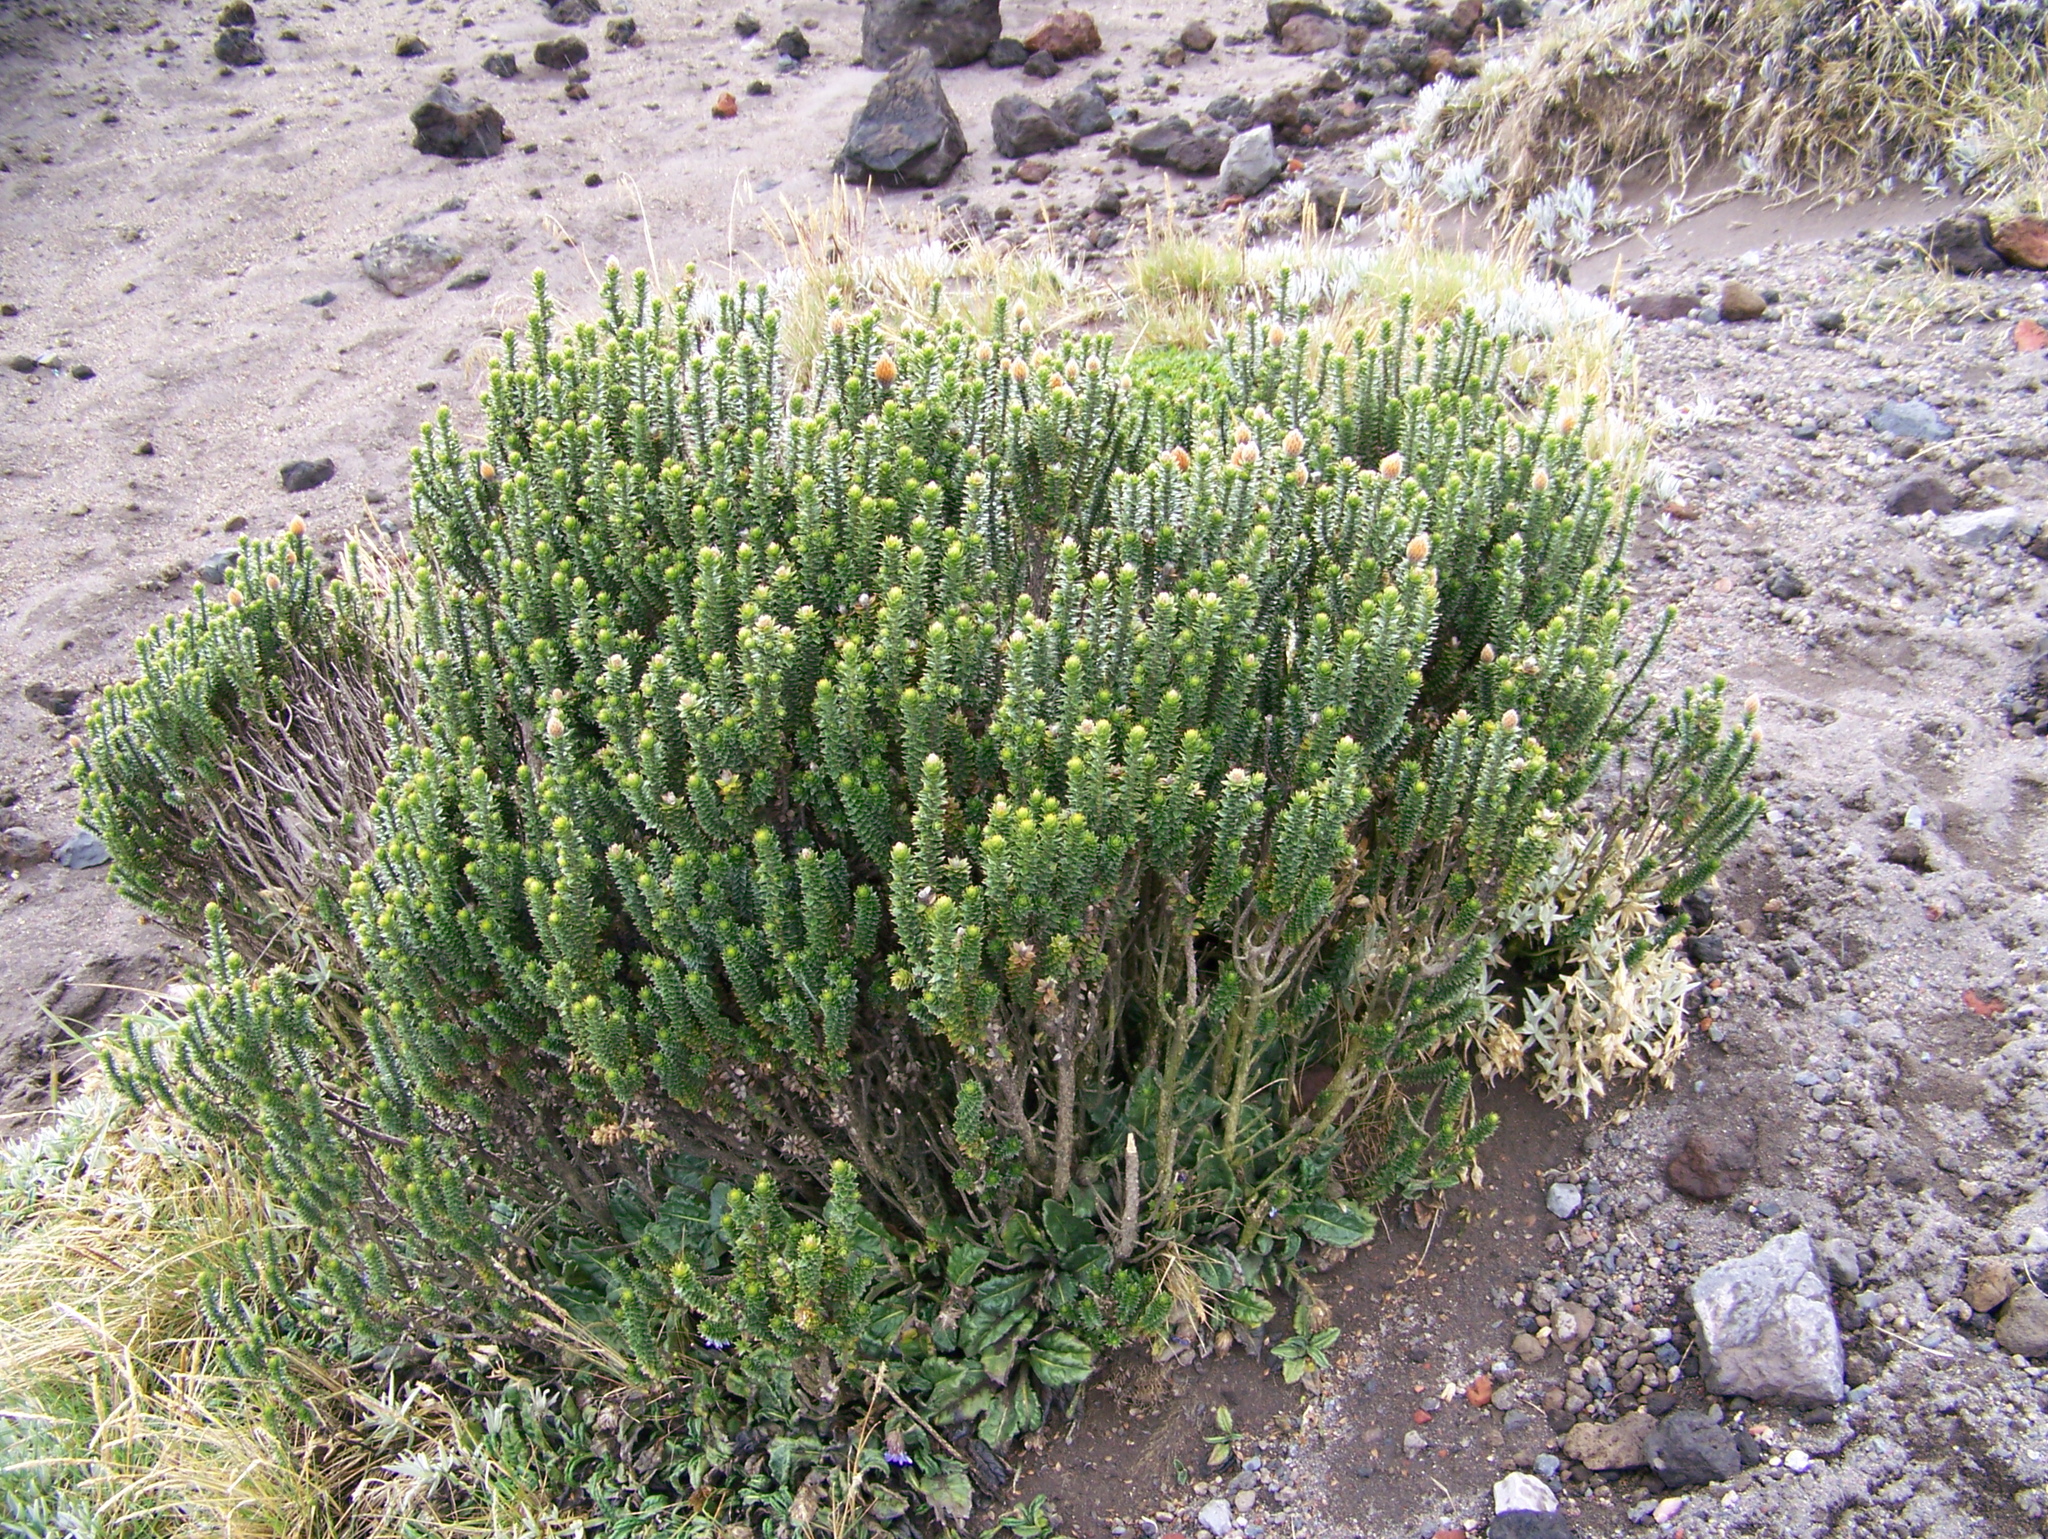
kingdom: Plantae
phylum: Tracheophyta
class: Magnoliopsida
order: Asterales
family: Asteraceae
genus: Chuquiraga
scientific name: Chuquiraga jussieui
